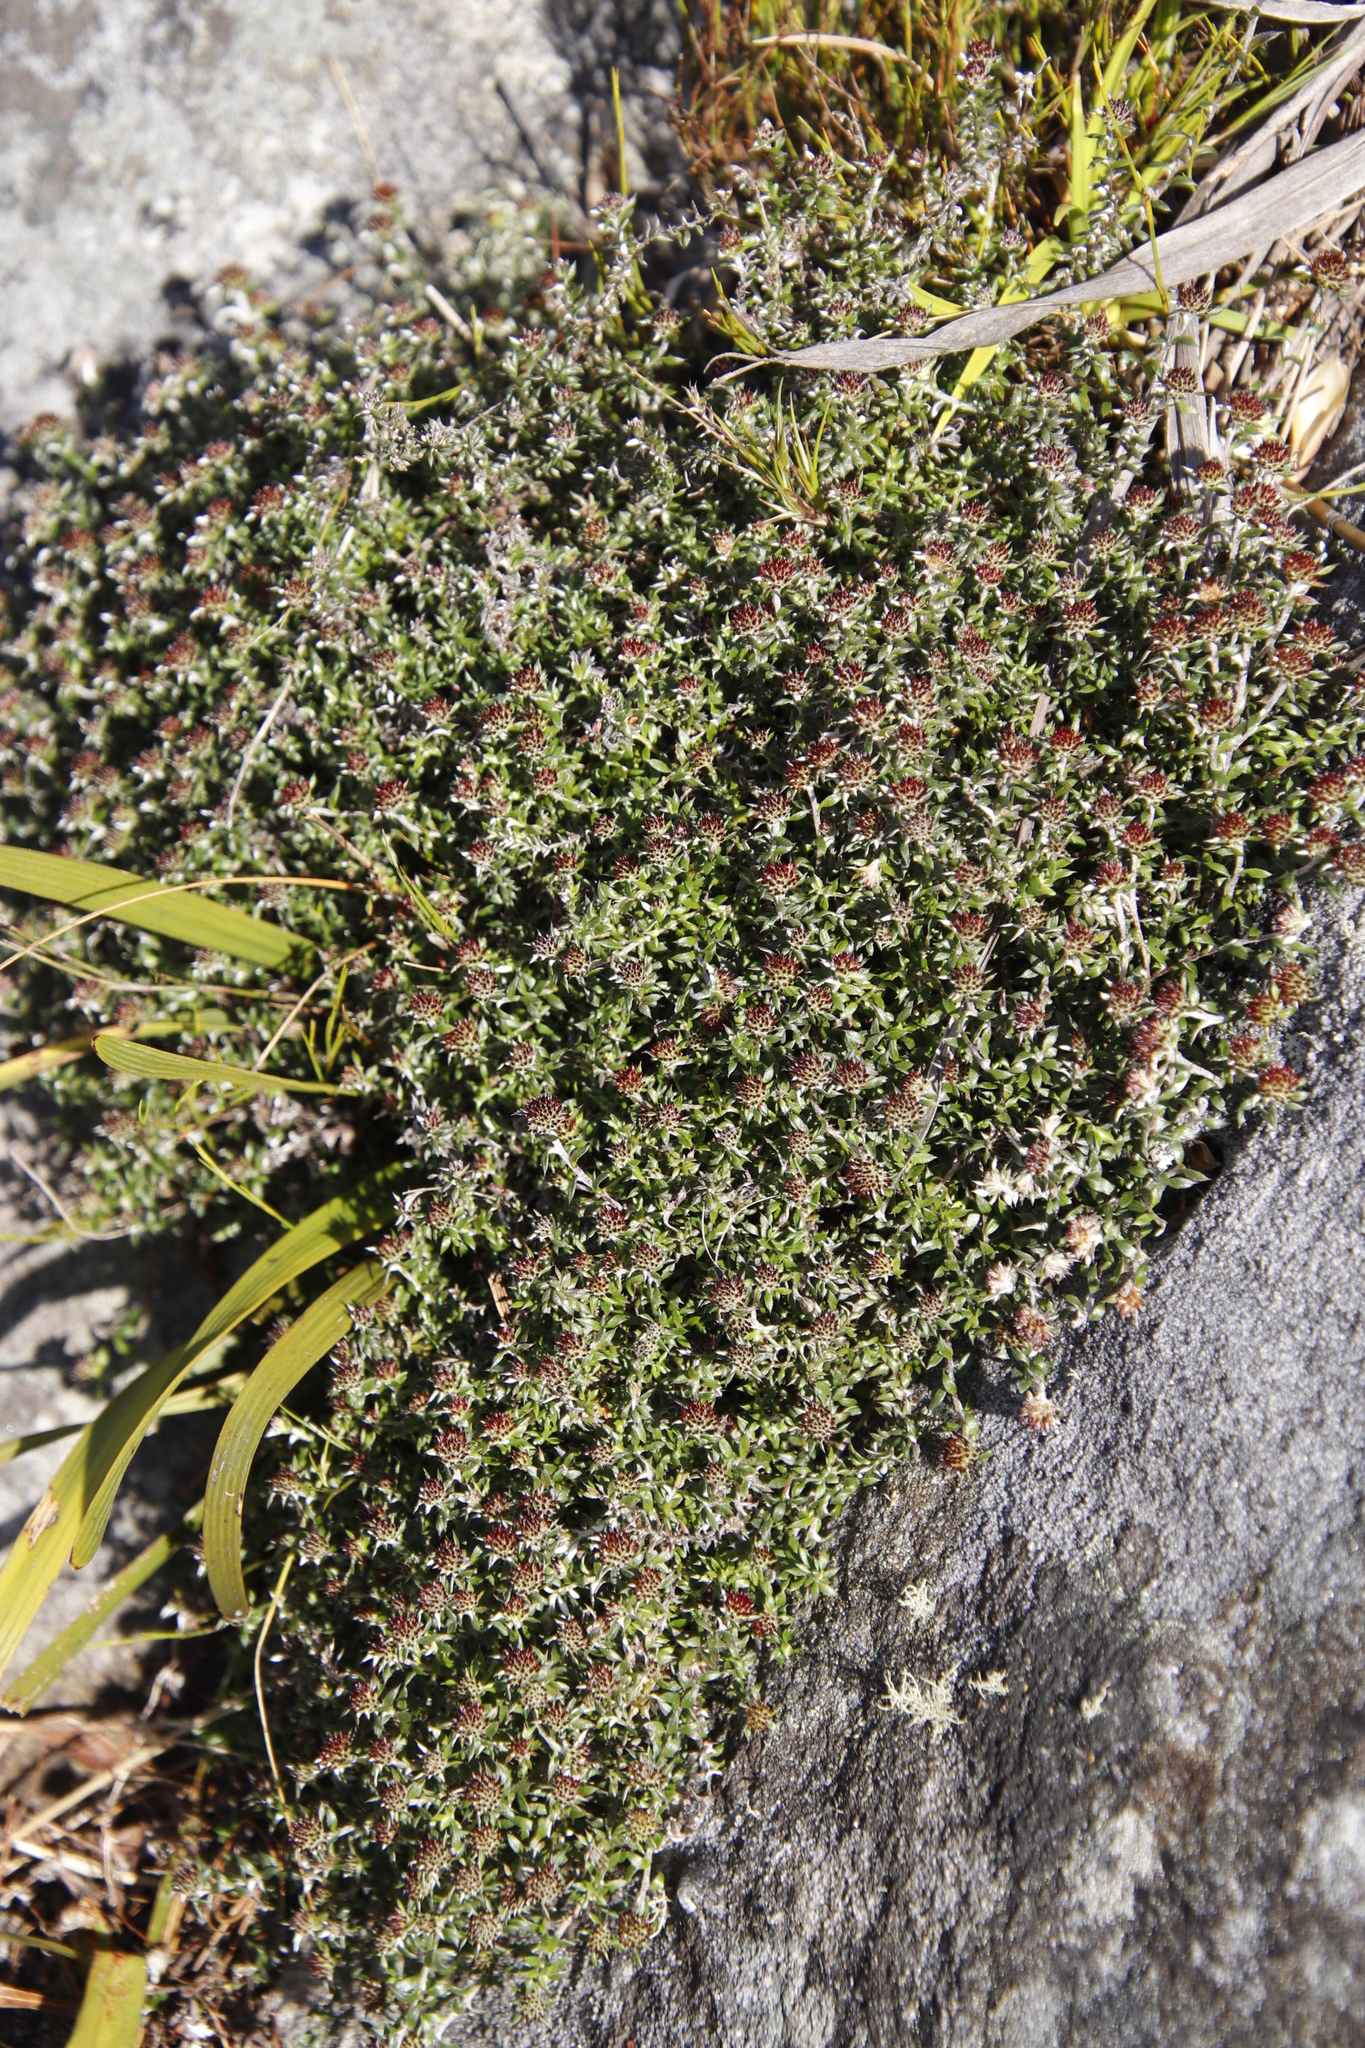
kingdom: Plantae
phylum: Tracheophyta
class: Magnoliopsida
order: Asterales
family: Asteraceae
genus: Stoebe
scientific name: Stoebe prostrata
